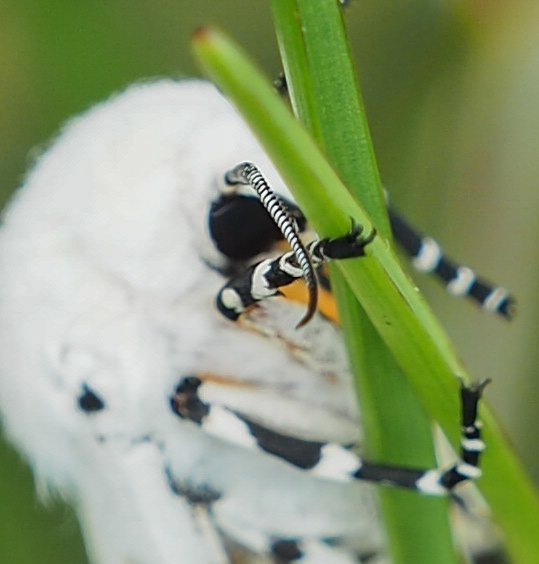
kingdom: Animalia
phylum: Arthropoda
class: Insecta
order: Lepidoptera
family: Erebidae
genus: Estigmene
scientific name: Estigmene acrea
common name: Salt marsh moth
